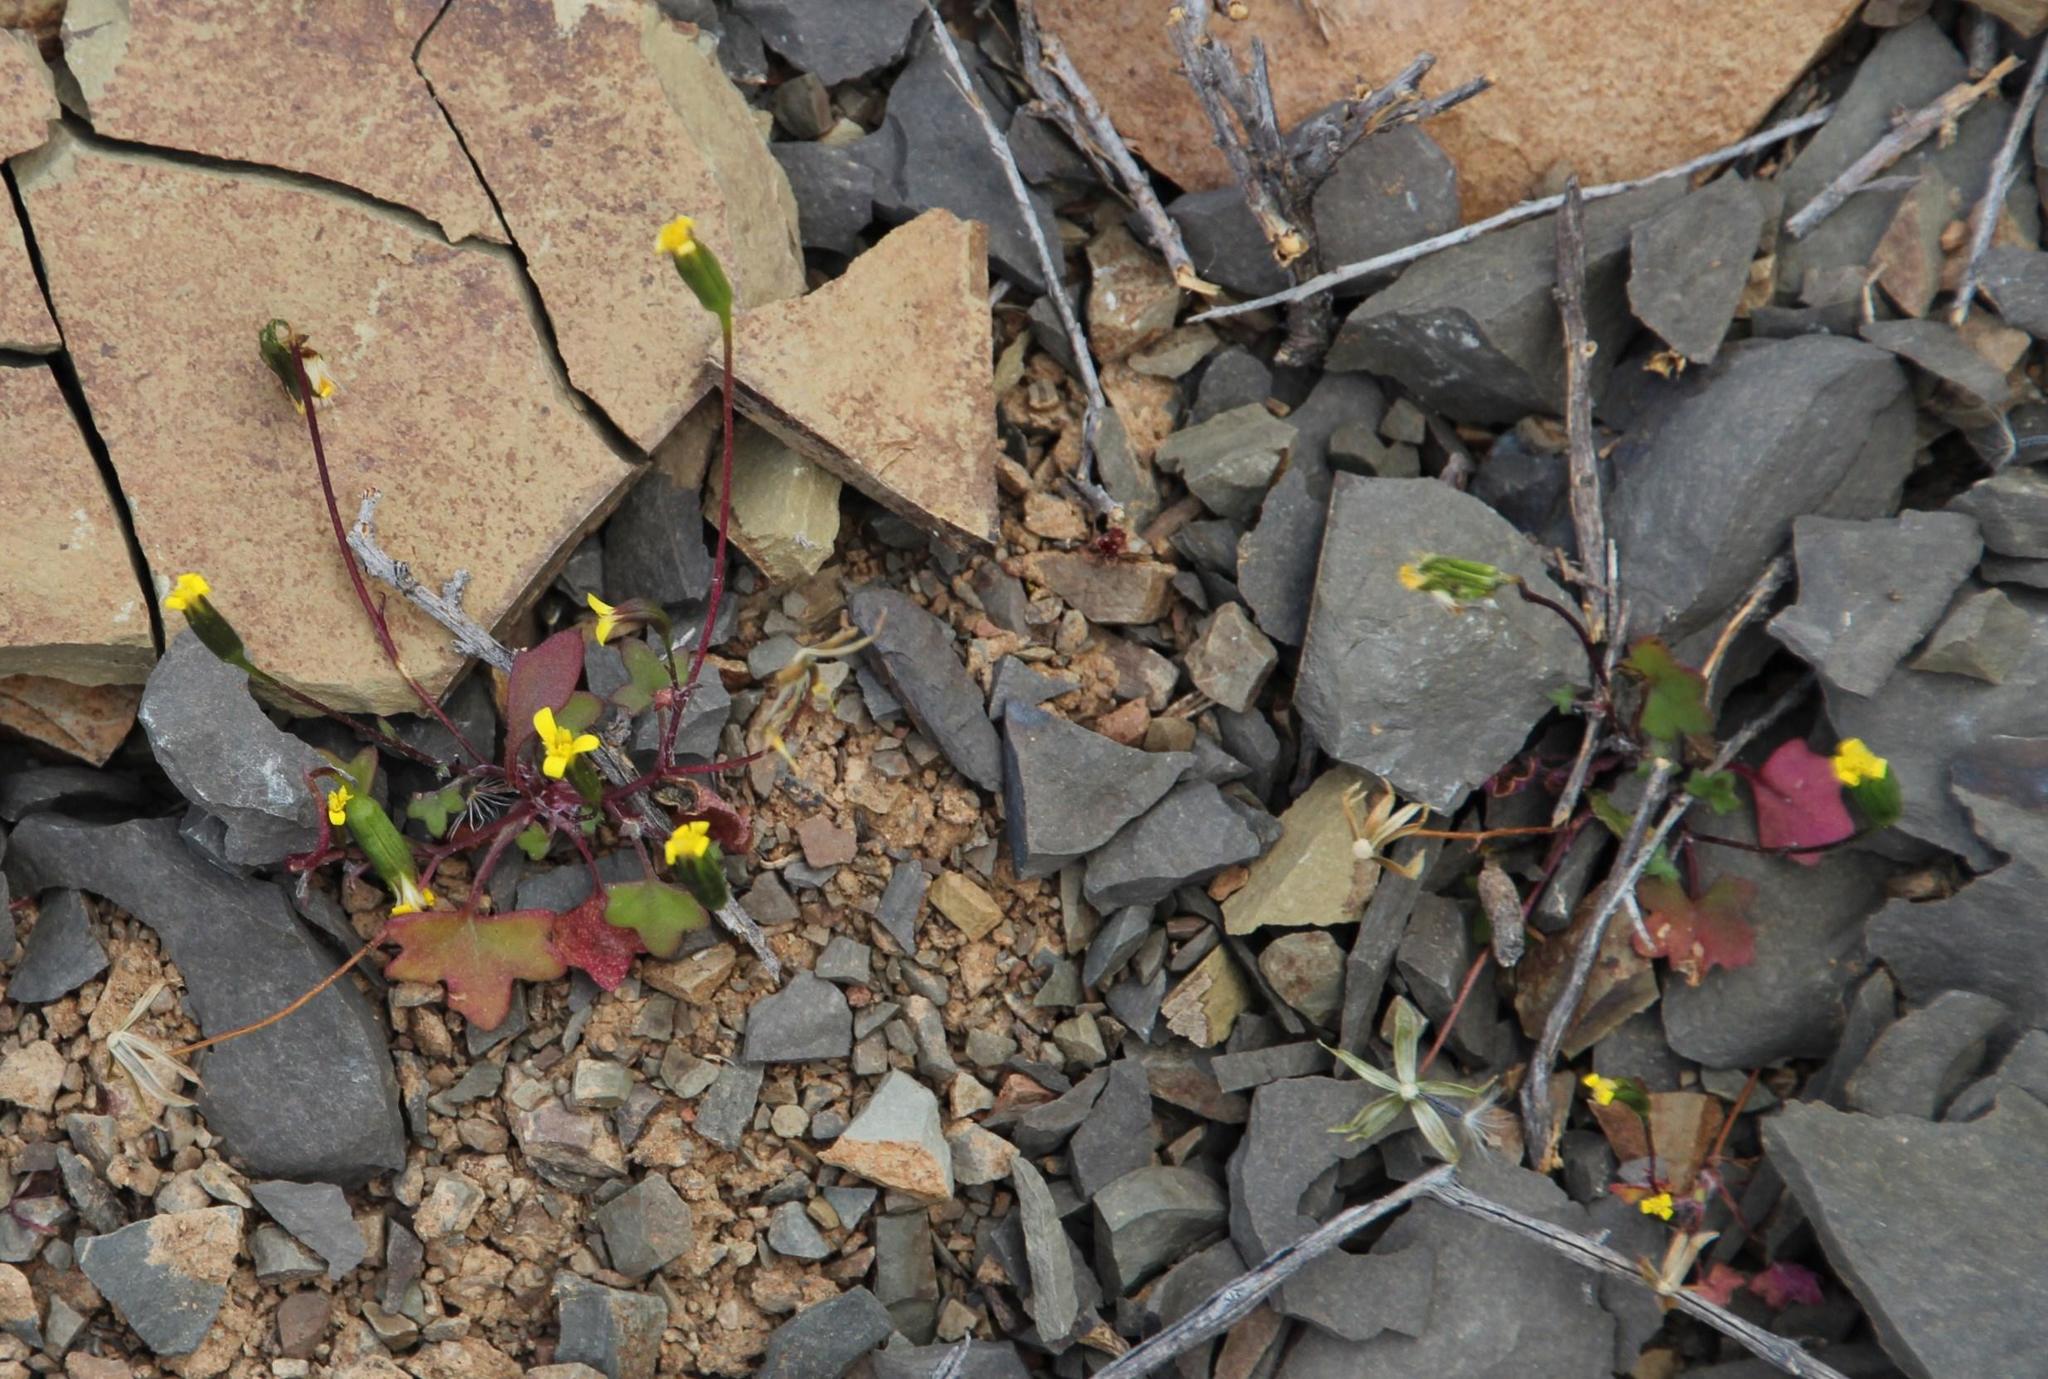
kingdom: Plantae
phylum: Tracheophyta
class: Magnoliopsida
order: Asterales
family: Asteraceae
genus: Stilpnogyne
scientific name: Stilpnogyne bellidioides
